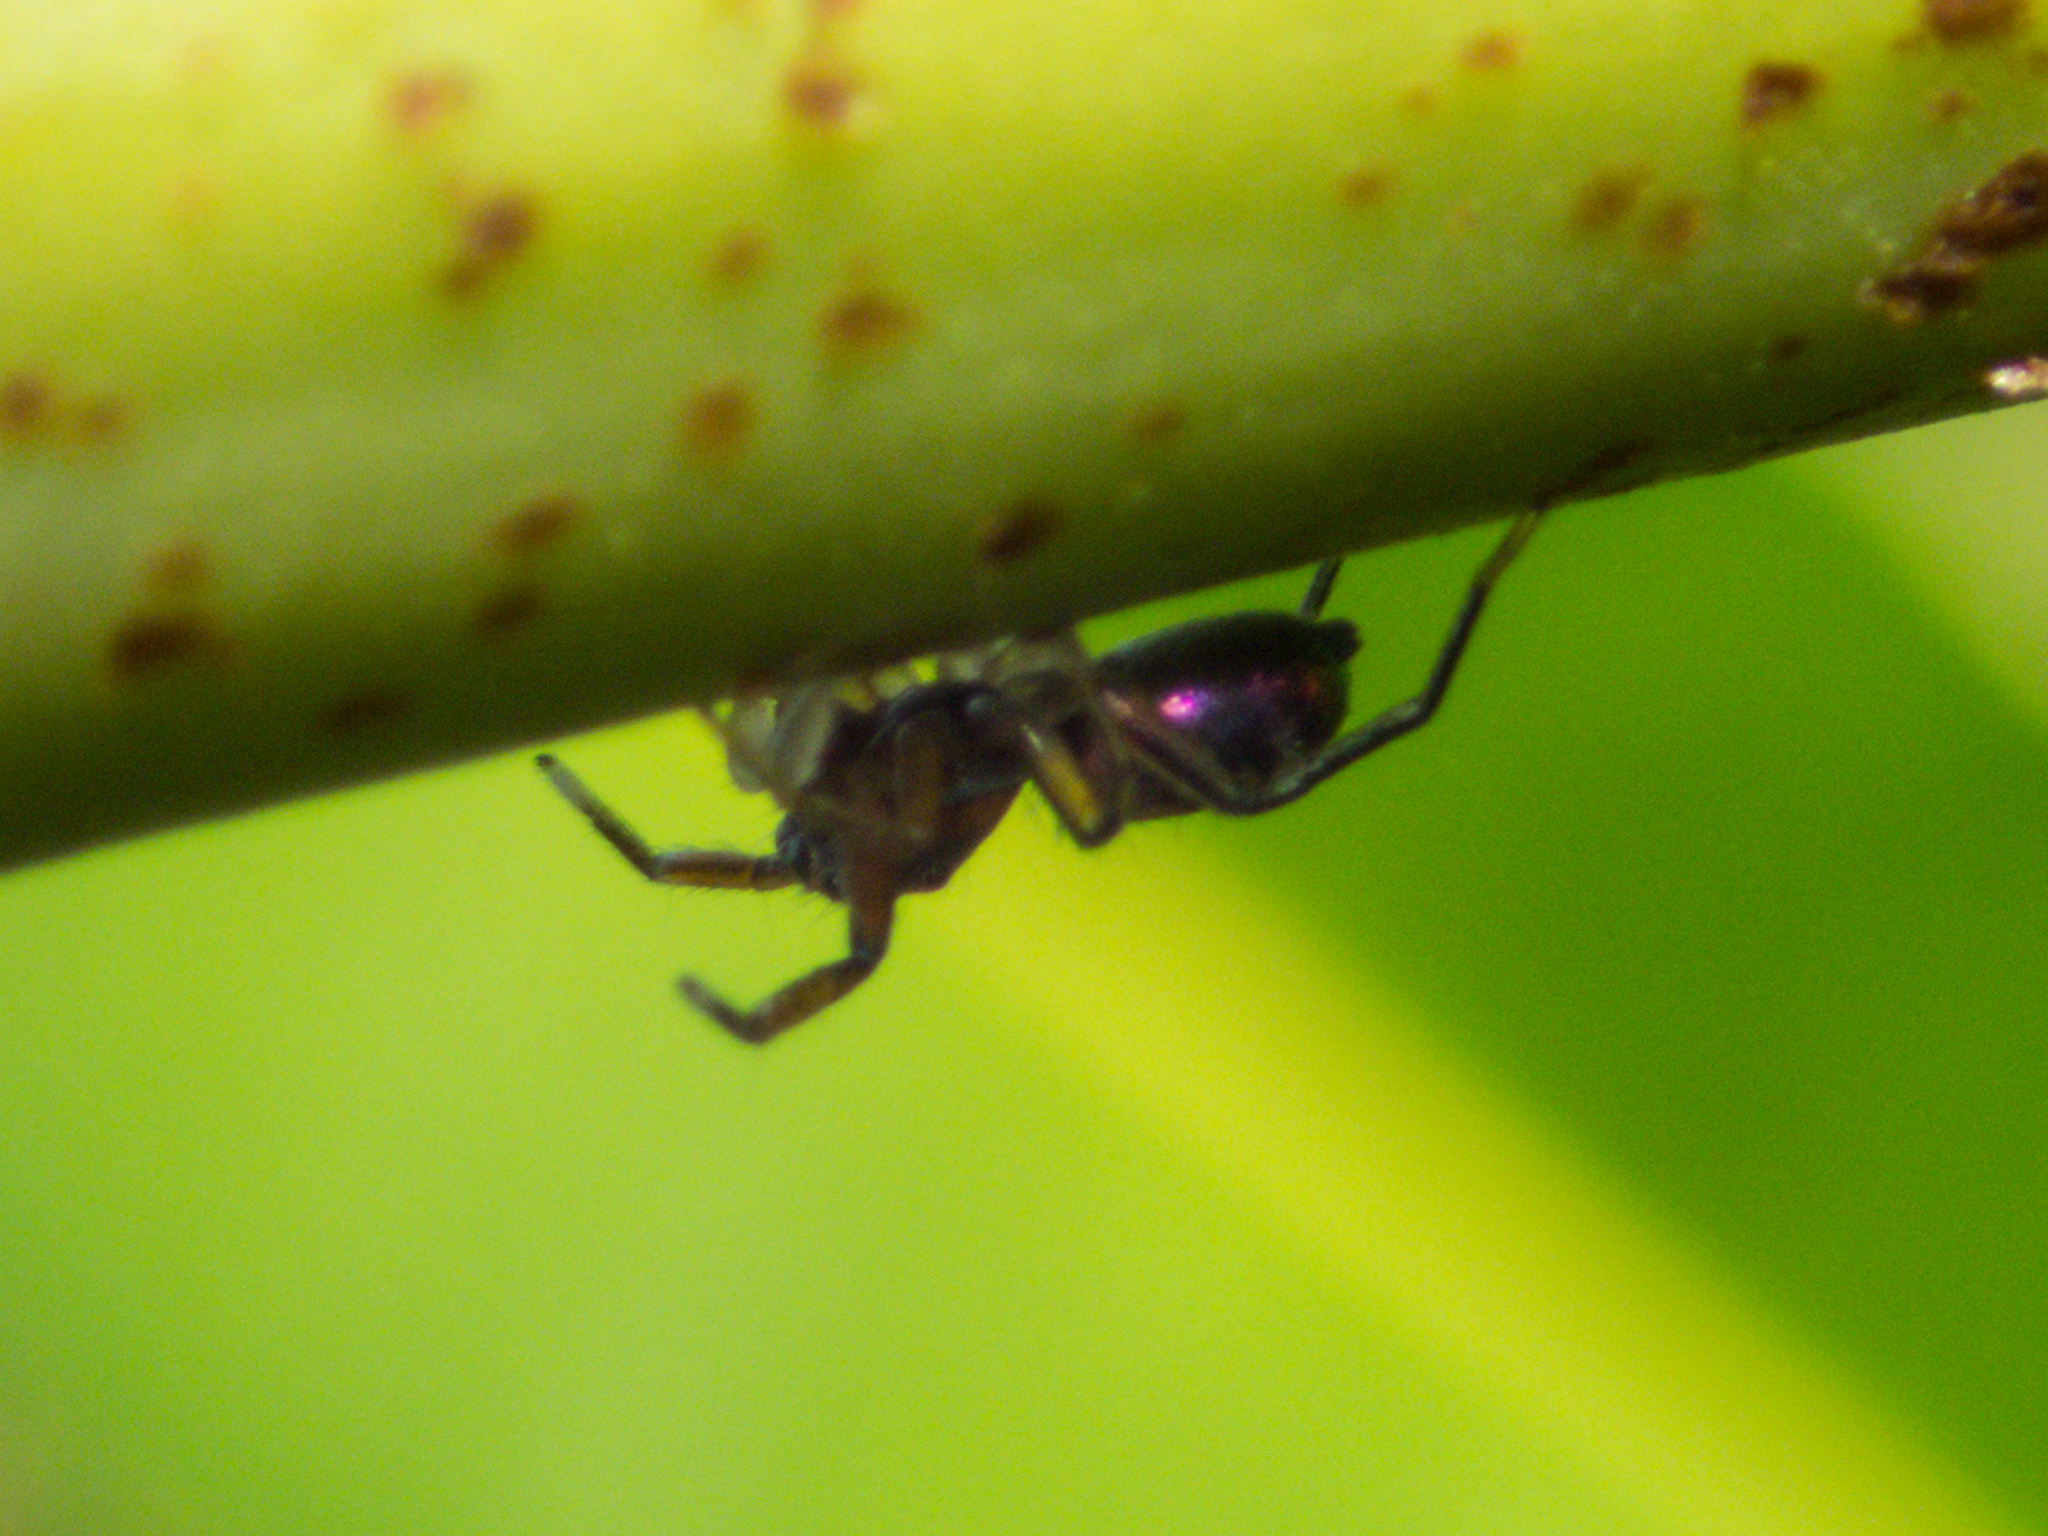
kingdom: Animalia
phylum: Arthropoda
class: Arachnida
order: Araneae
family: Salticidae
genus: Siler
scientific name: Siler semiglaucus
